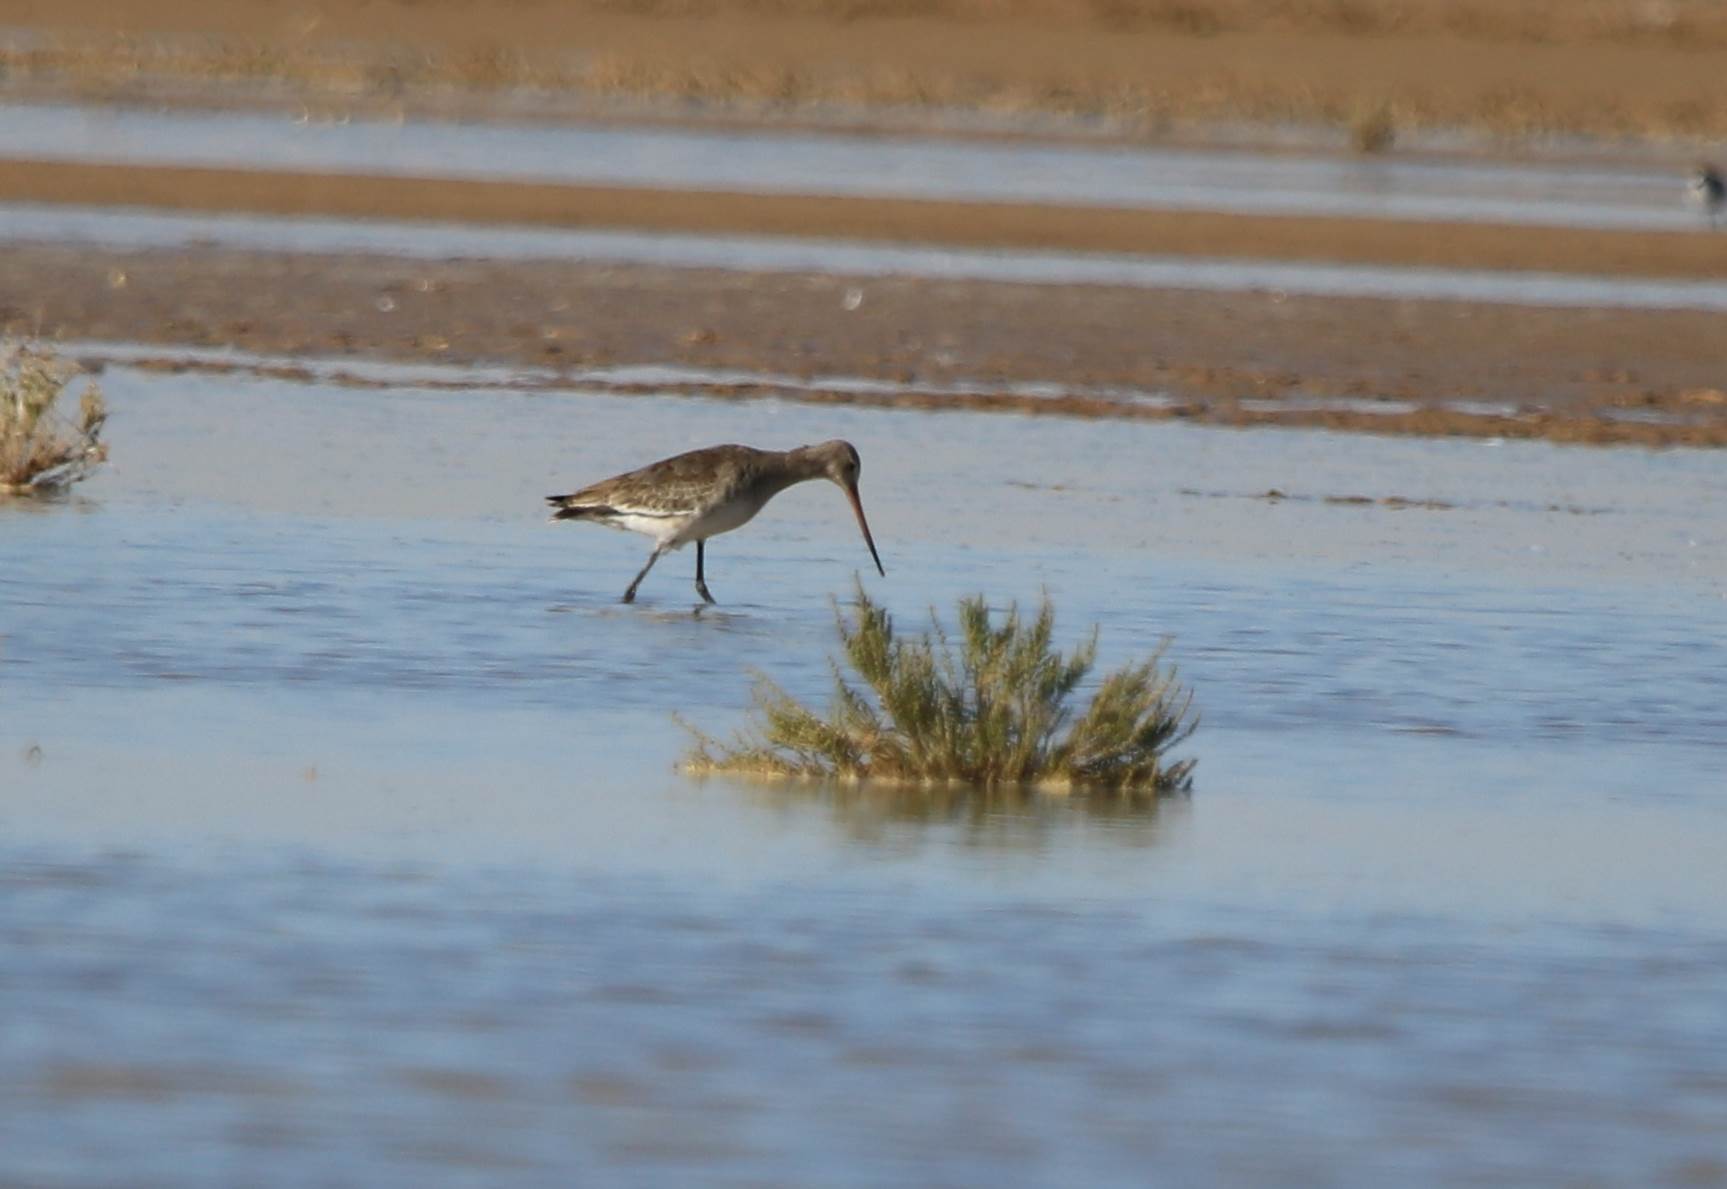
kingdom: Animalia
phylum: Chordata
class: Aves
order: Charadriiformes
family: Scolopacidae
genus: Limosa
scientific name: Limosa limosa
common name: Black-tailed godwit
